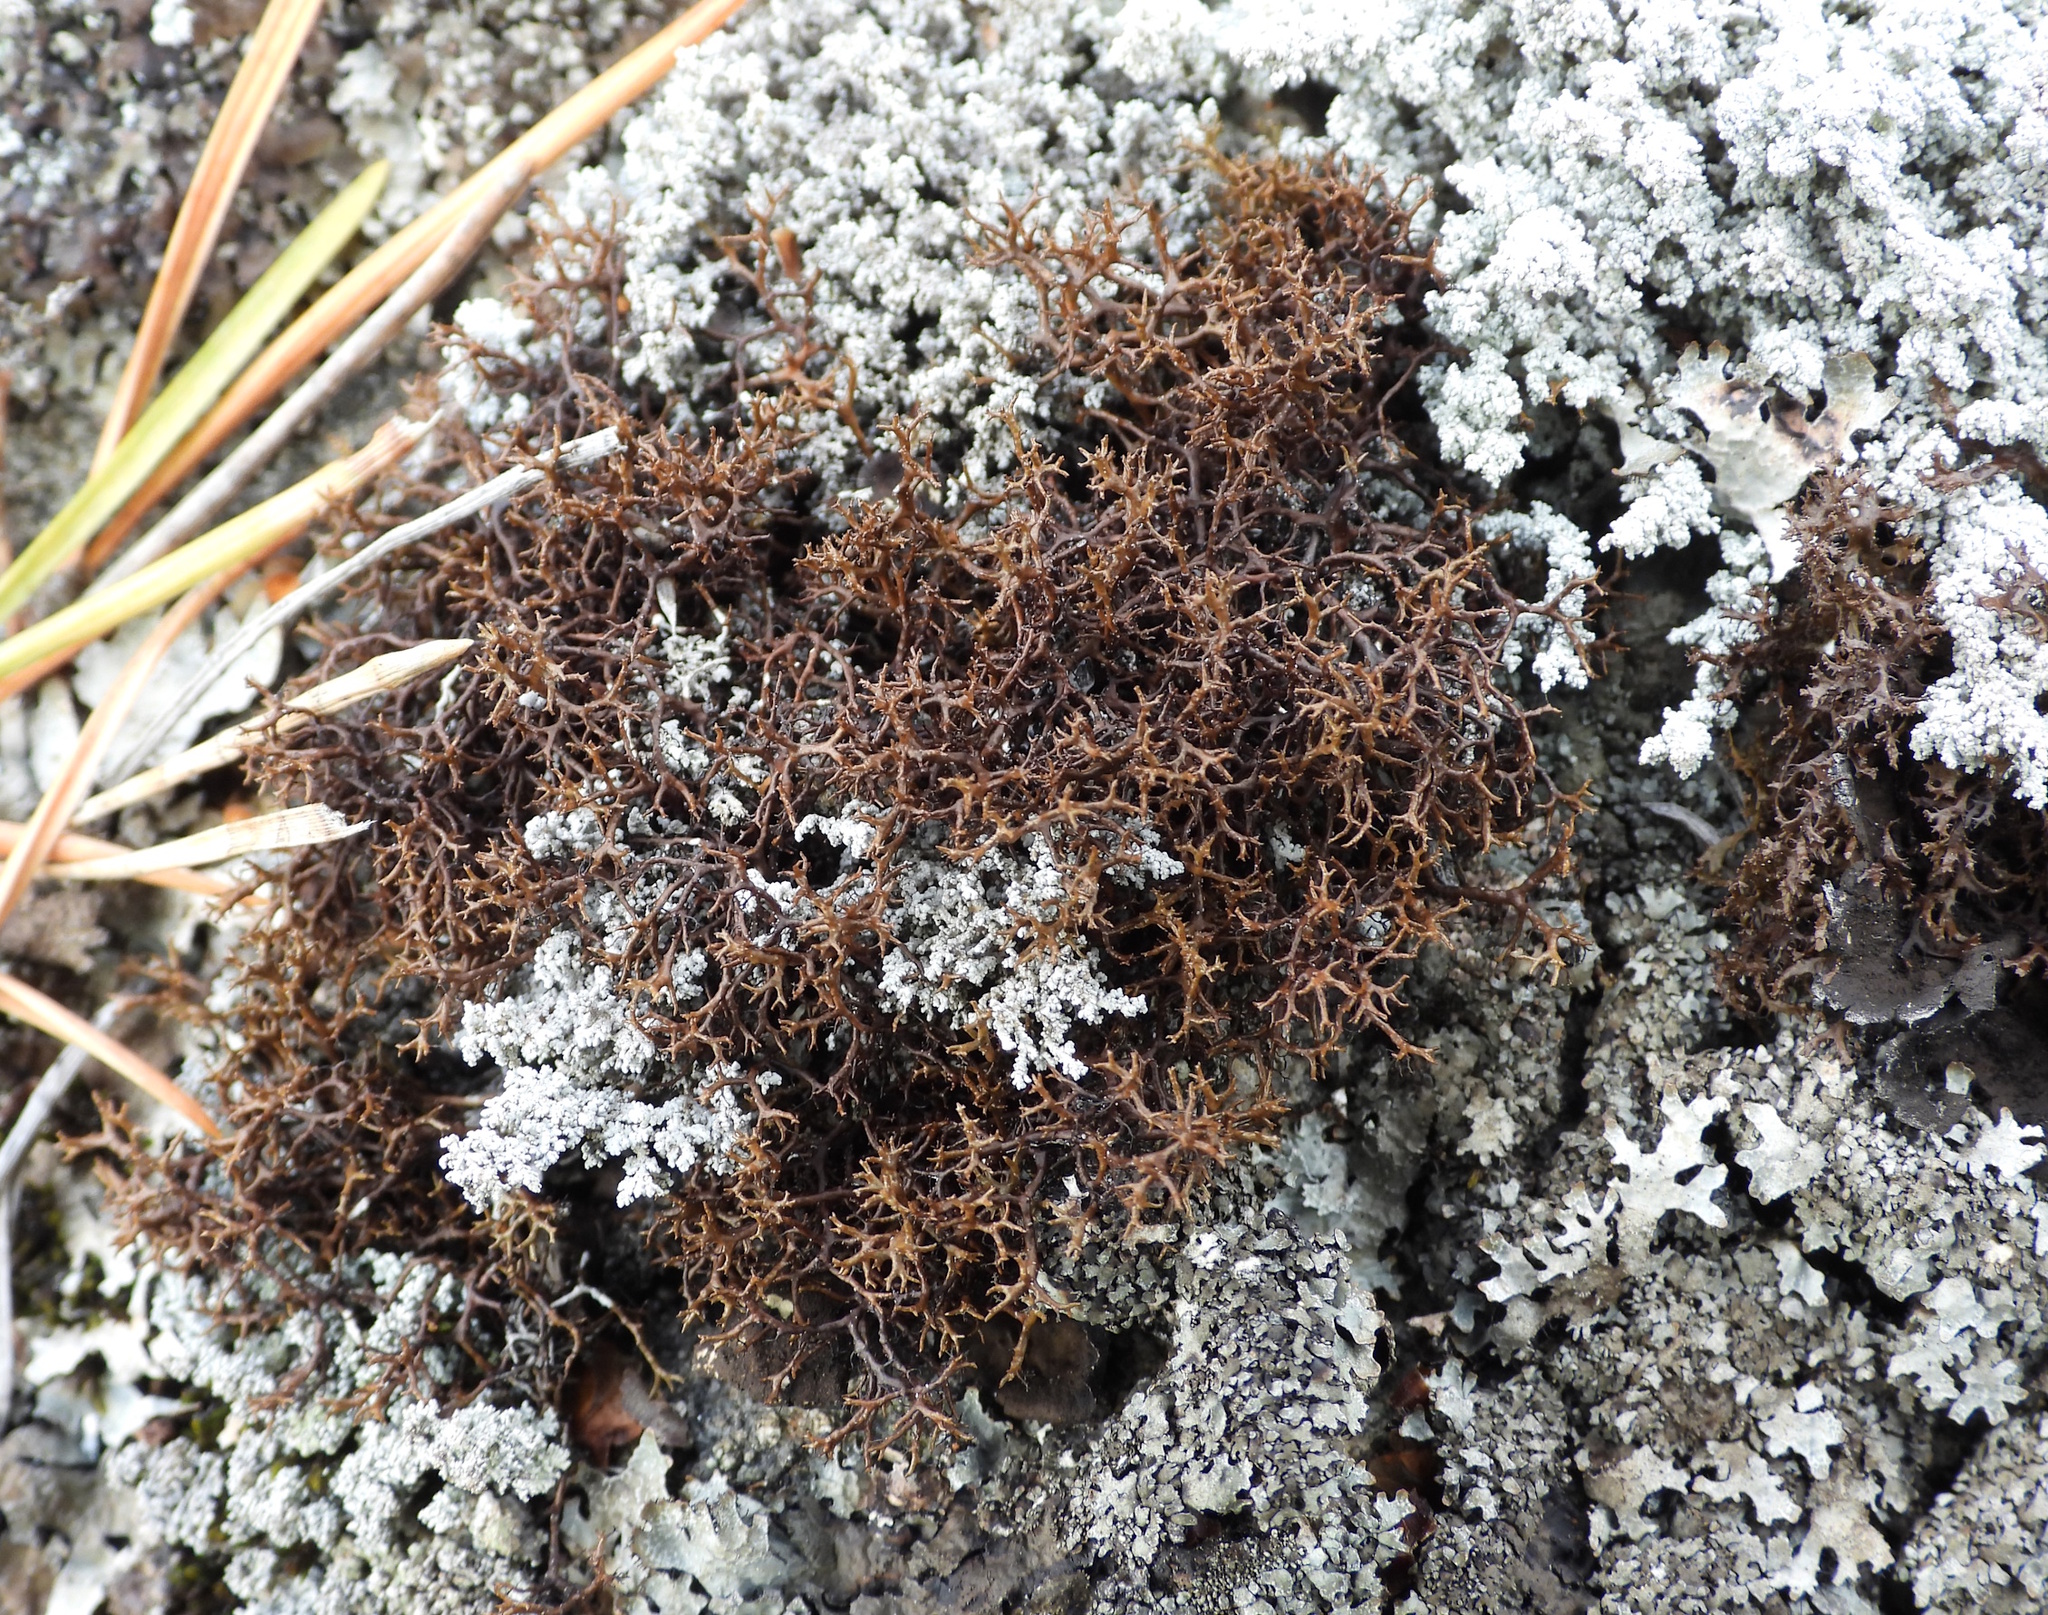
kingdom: Fungi
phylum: Ascomycota
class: Lecanoromycetes
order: Lecanorales
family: Parmeliaceae
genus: Cetraria
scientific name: Cetraria muricata
